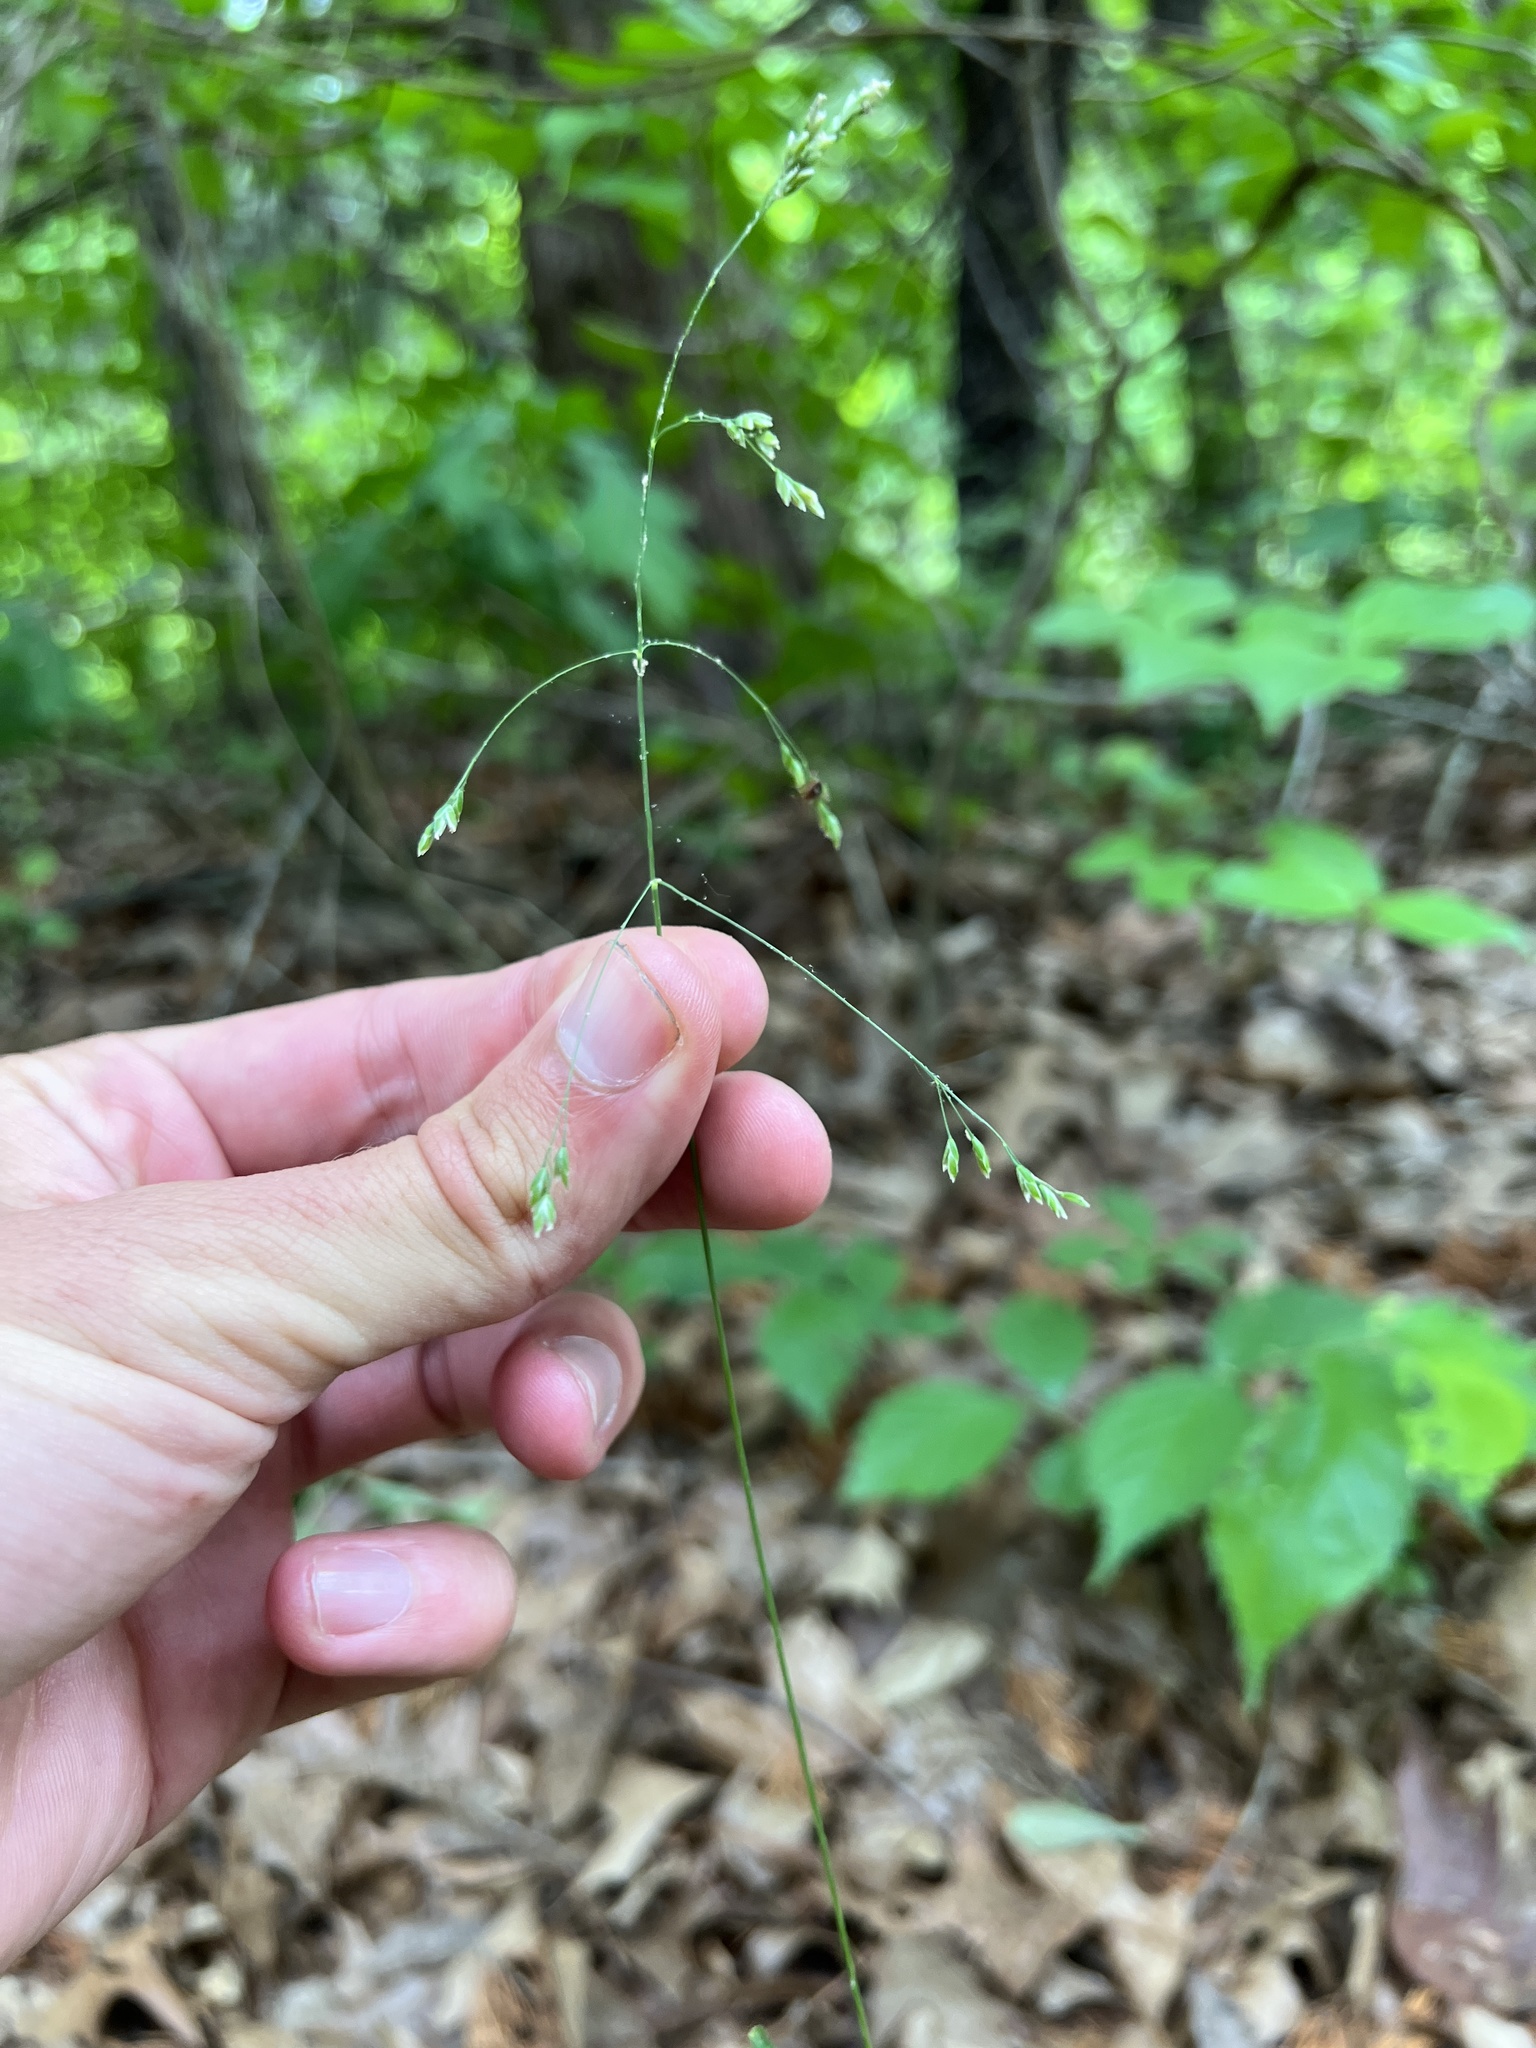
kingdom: Plantae
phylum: Tracheophyta
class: Liliopsida
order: Poales
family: Poaceae
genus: Poa
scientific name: Poa wolfii
